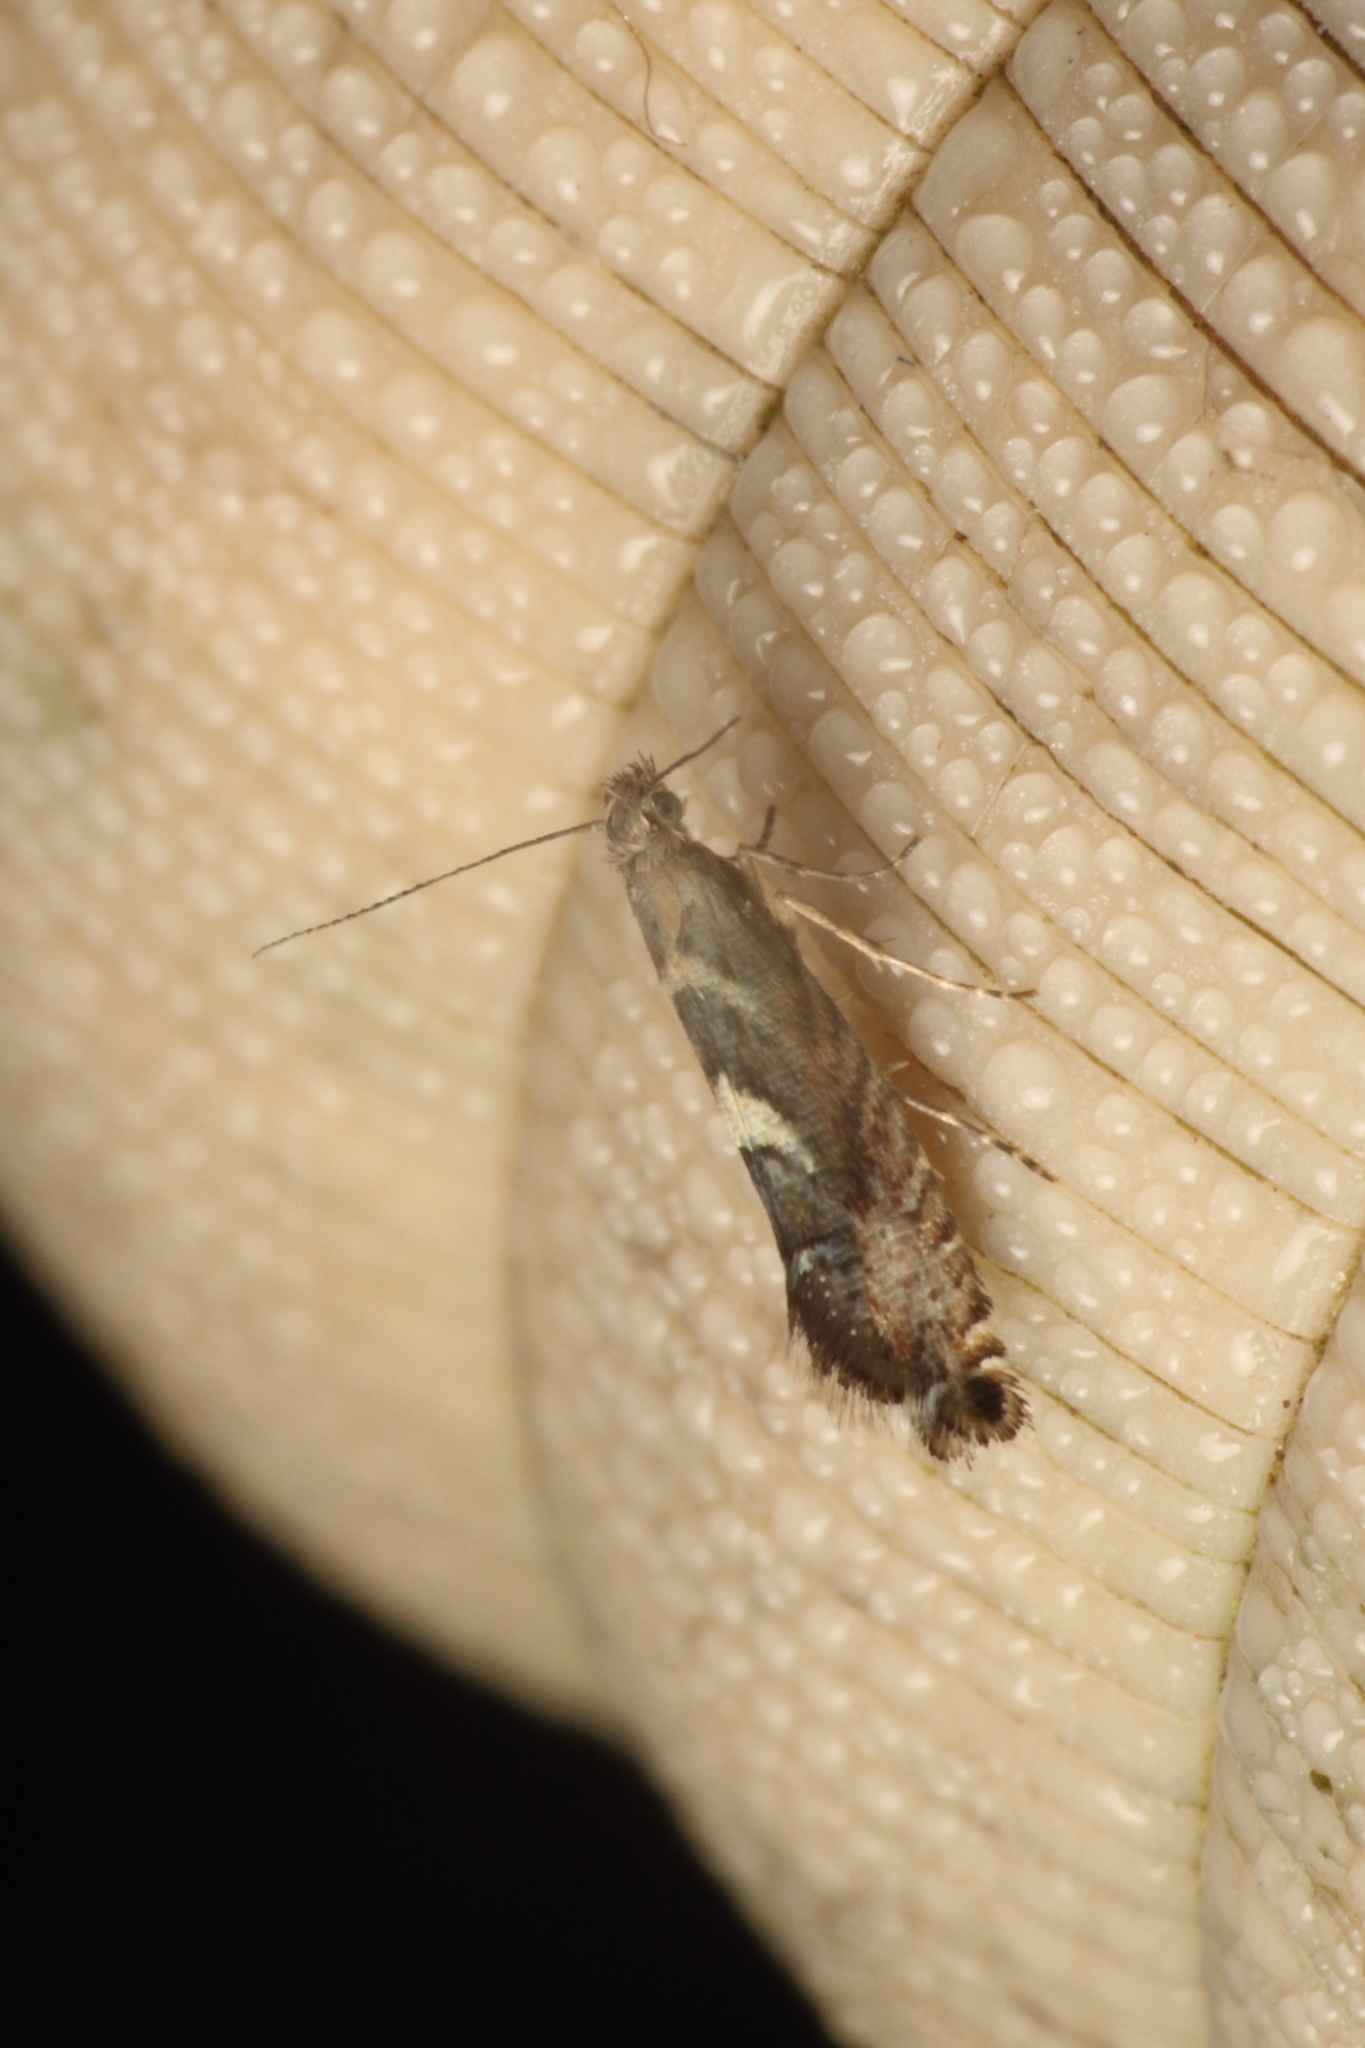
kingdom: Animalia
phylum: Arthropoda
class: Insecta
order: Lepidoptera
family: Glyphipterigidae
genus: Glyphipterix
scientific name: Glyphipterix asteronota
